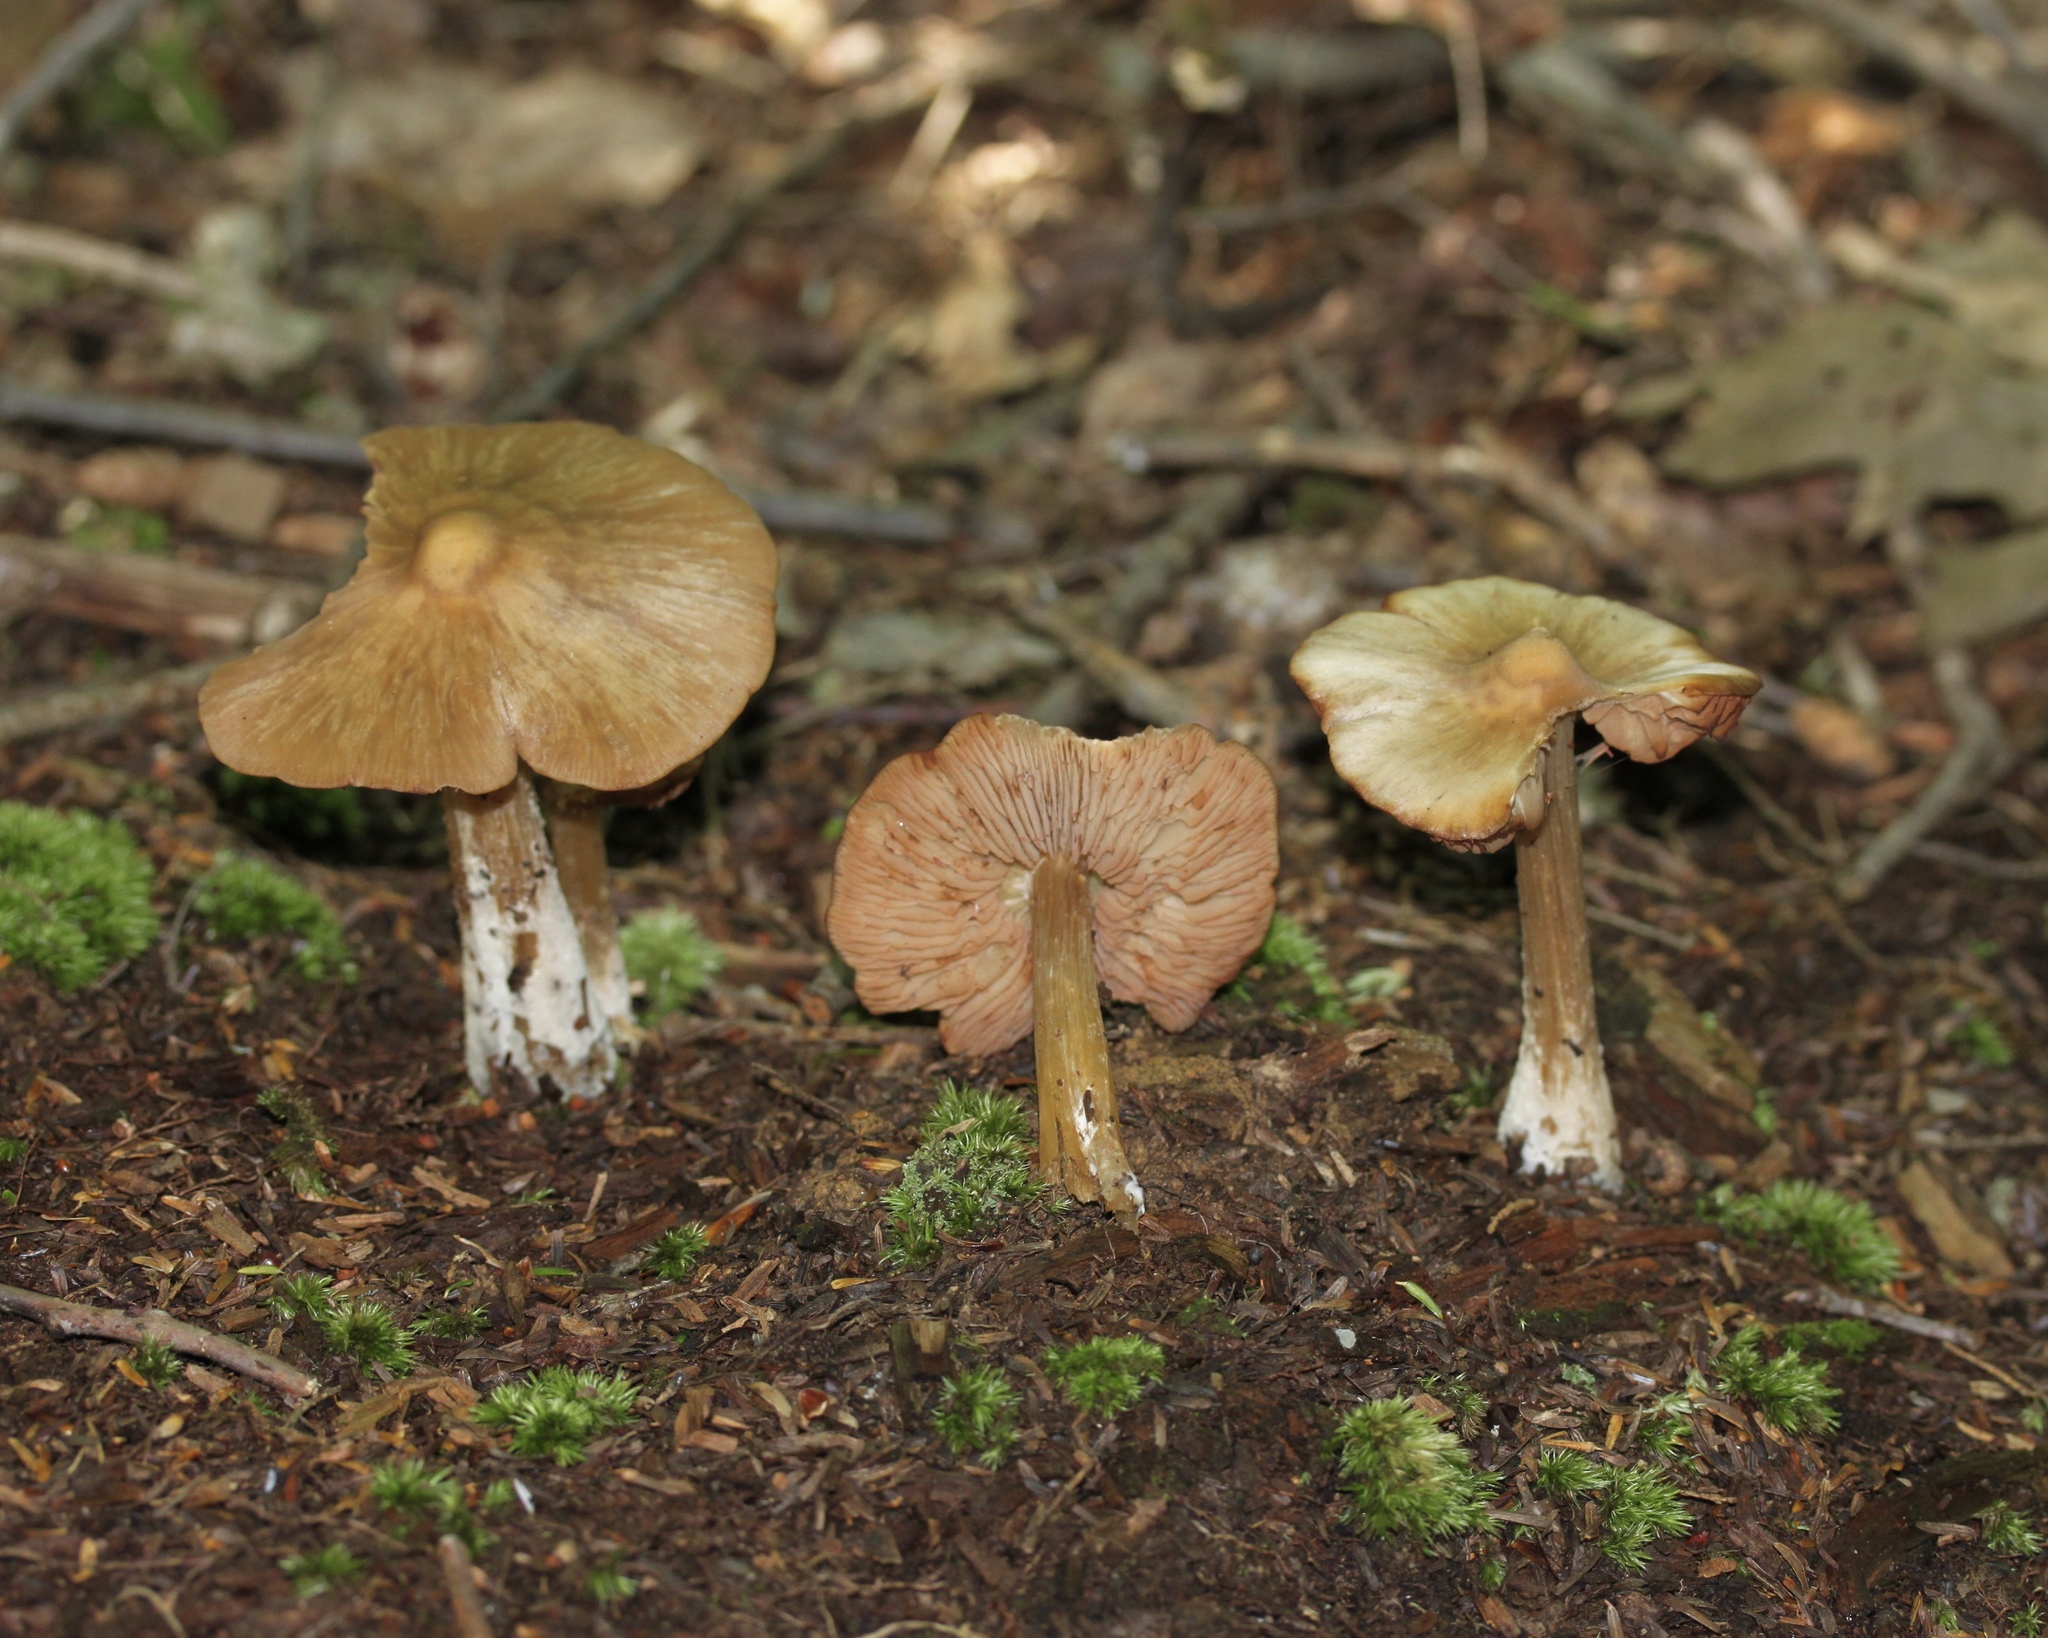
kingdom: Fungi
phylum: Basidiomycota
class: Agaricomycetes
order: Agaricales
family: Entolomataceae
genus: Entoloma
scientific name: Entoloma strictius
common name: Straight-stalked entoloma
